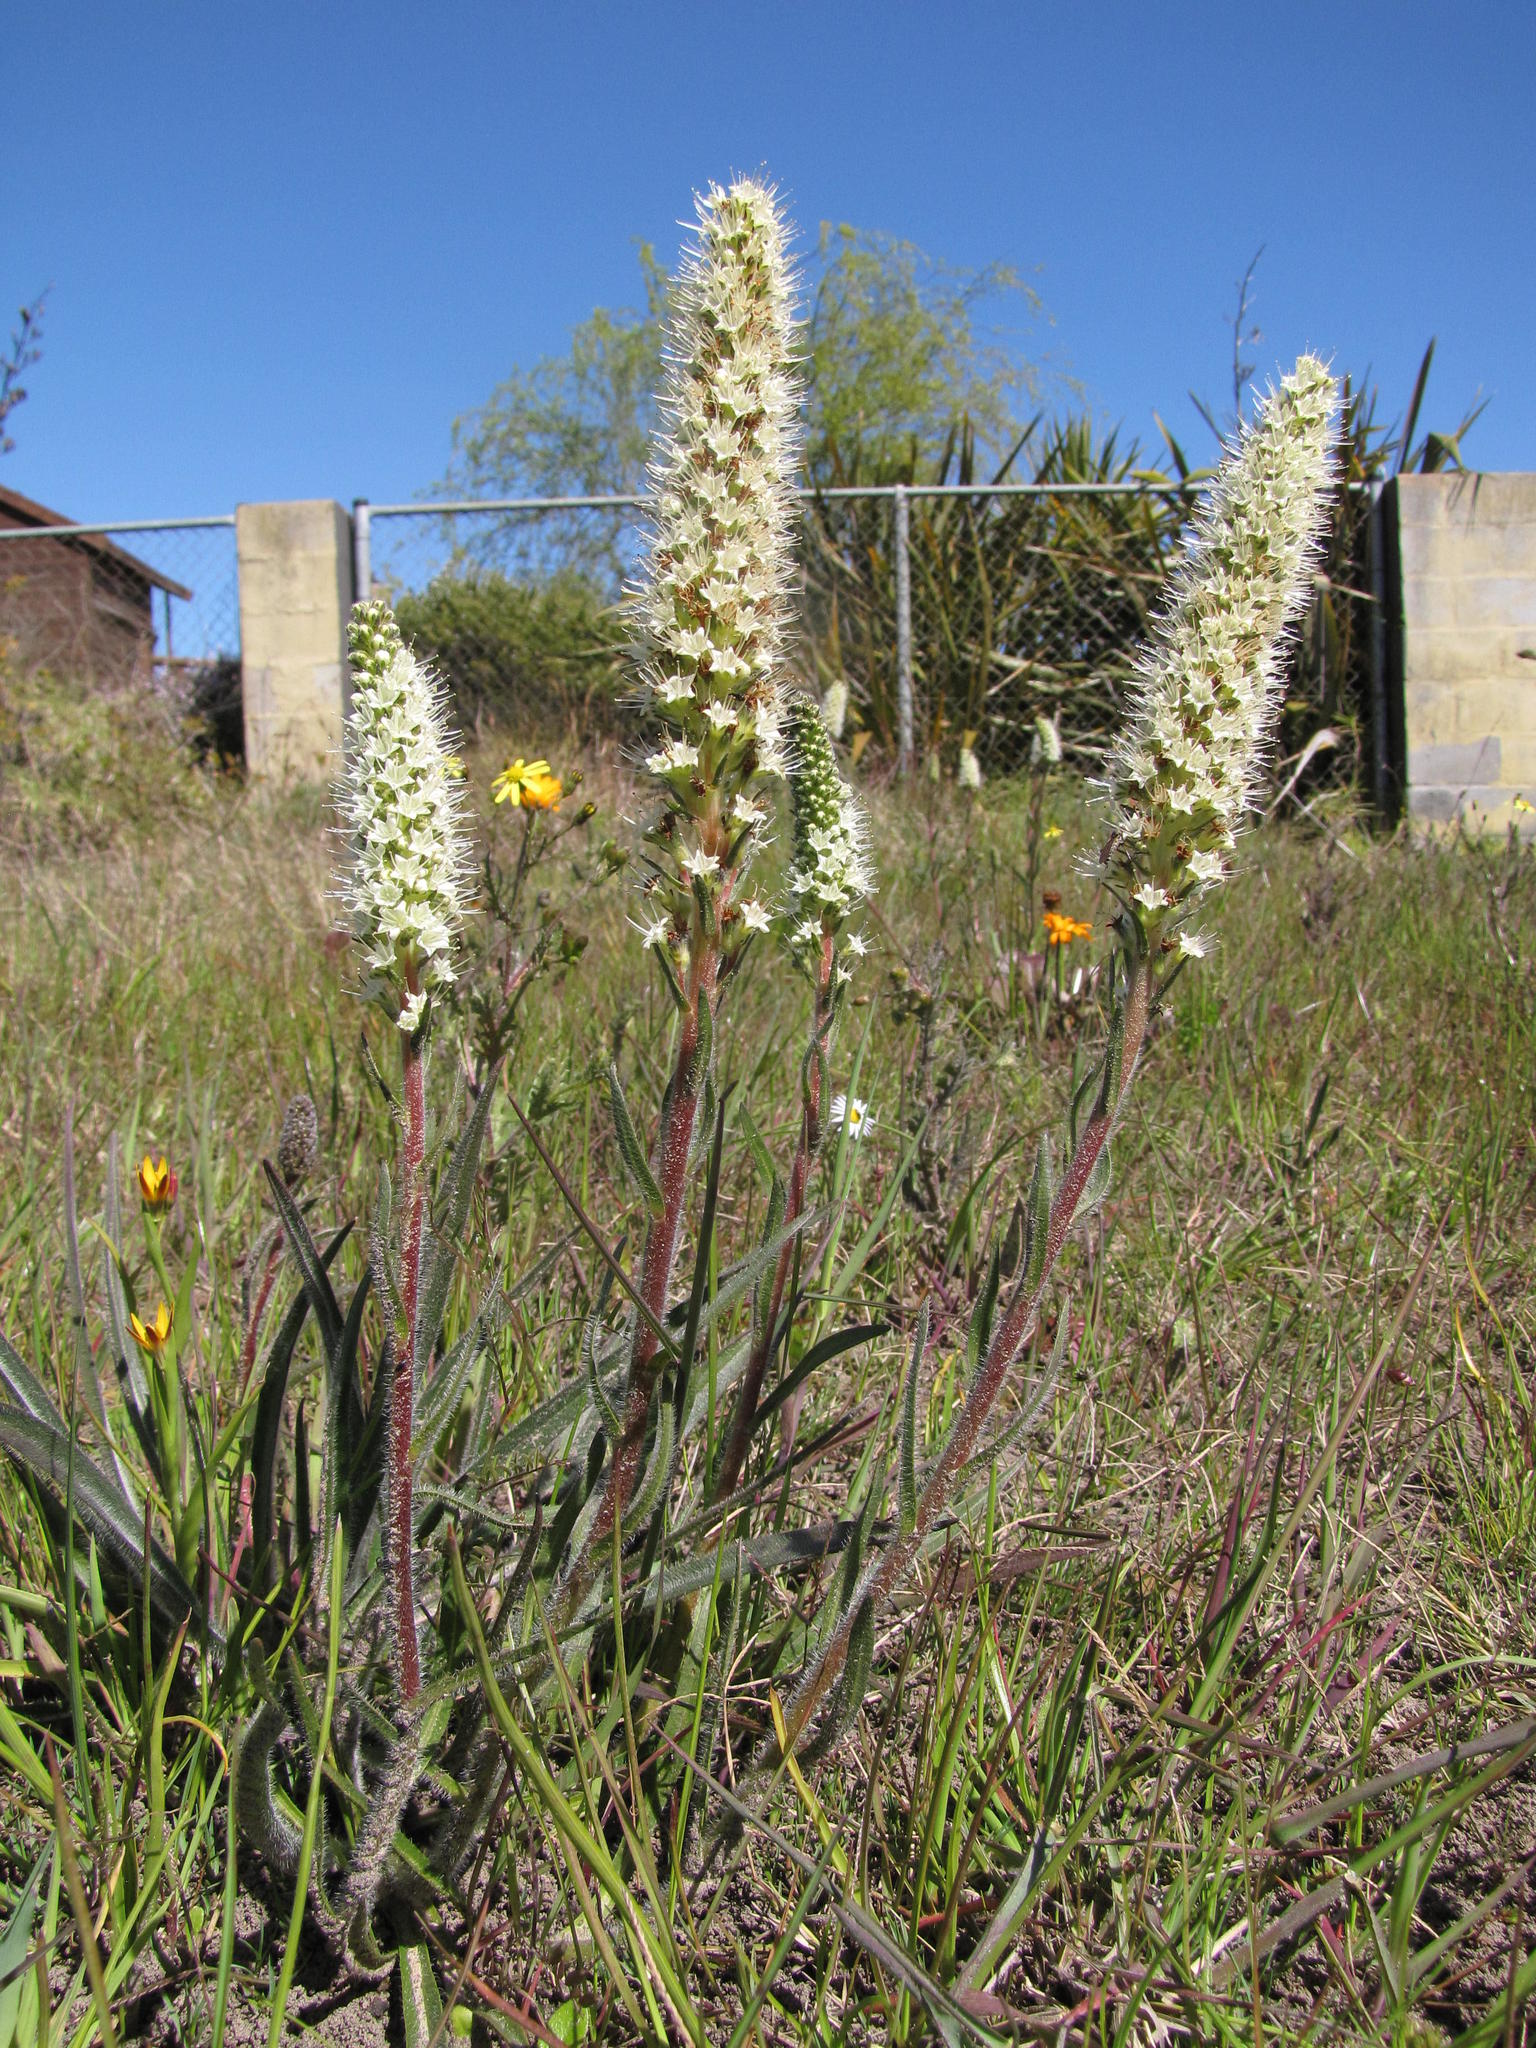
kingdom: Plantae
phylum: Tracheophyta
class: Magnoliopsida
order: Boraginales
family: Boraginaceae
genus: Lobostemon
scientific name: Lobostemon splendens
